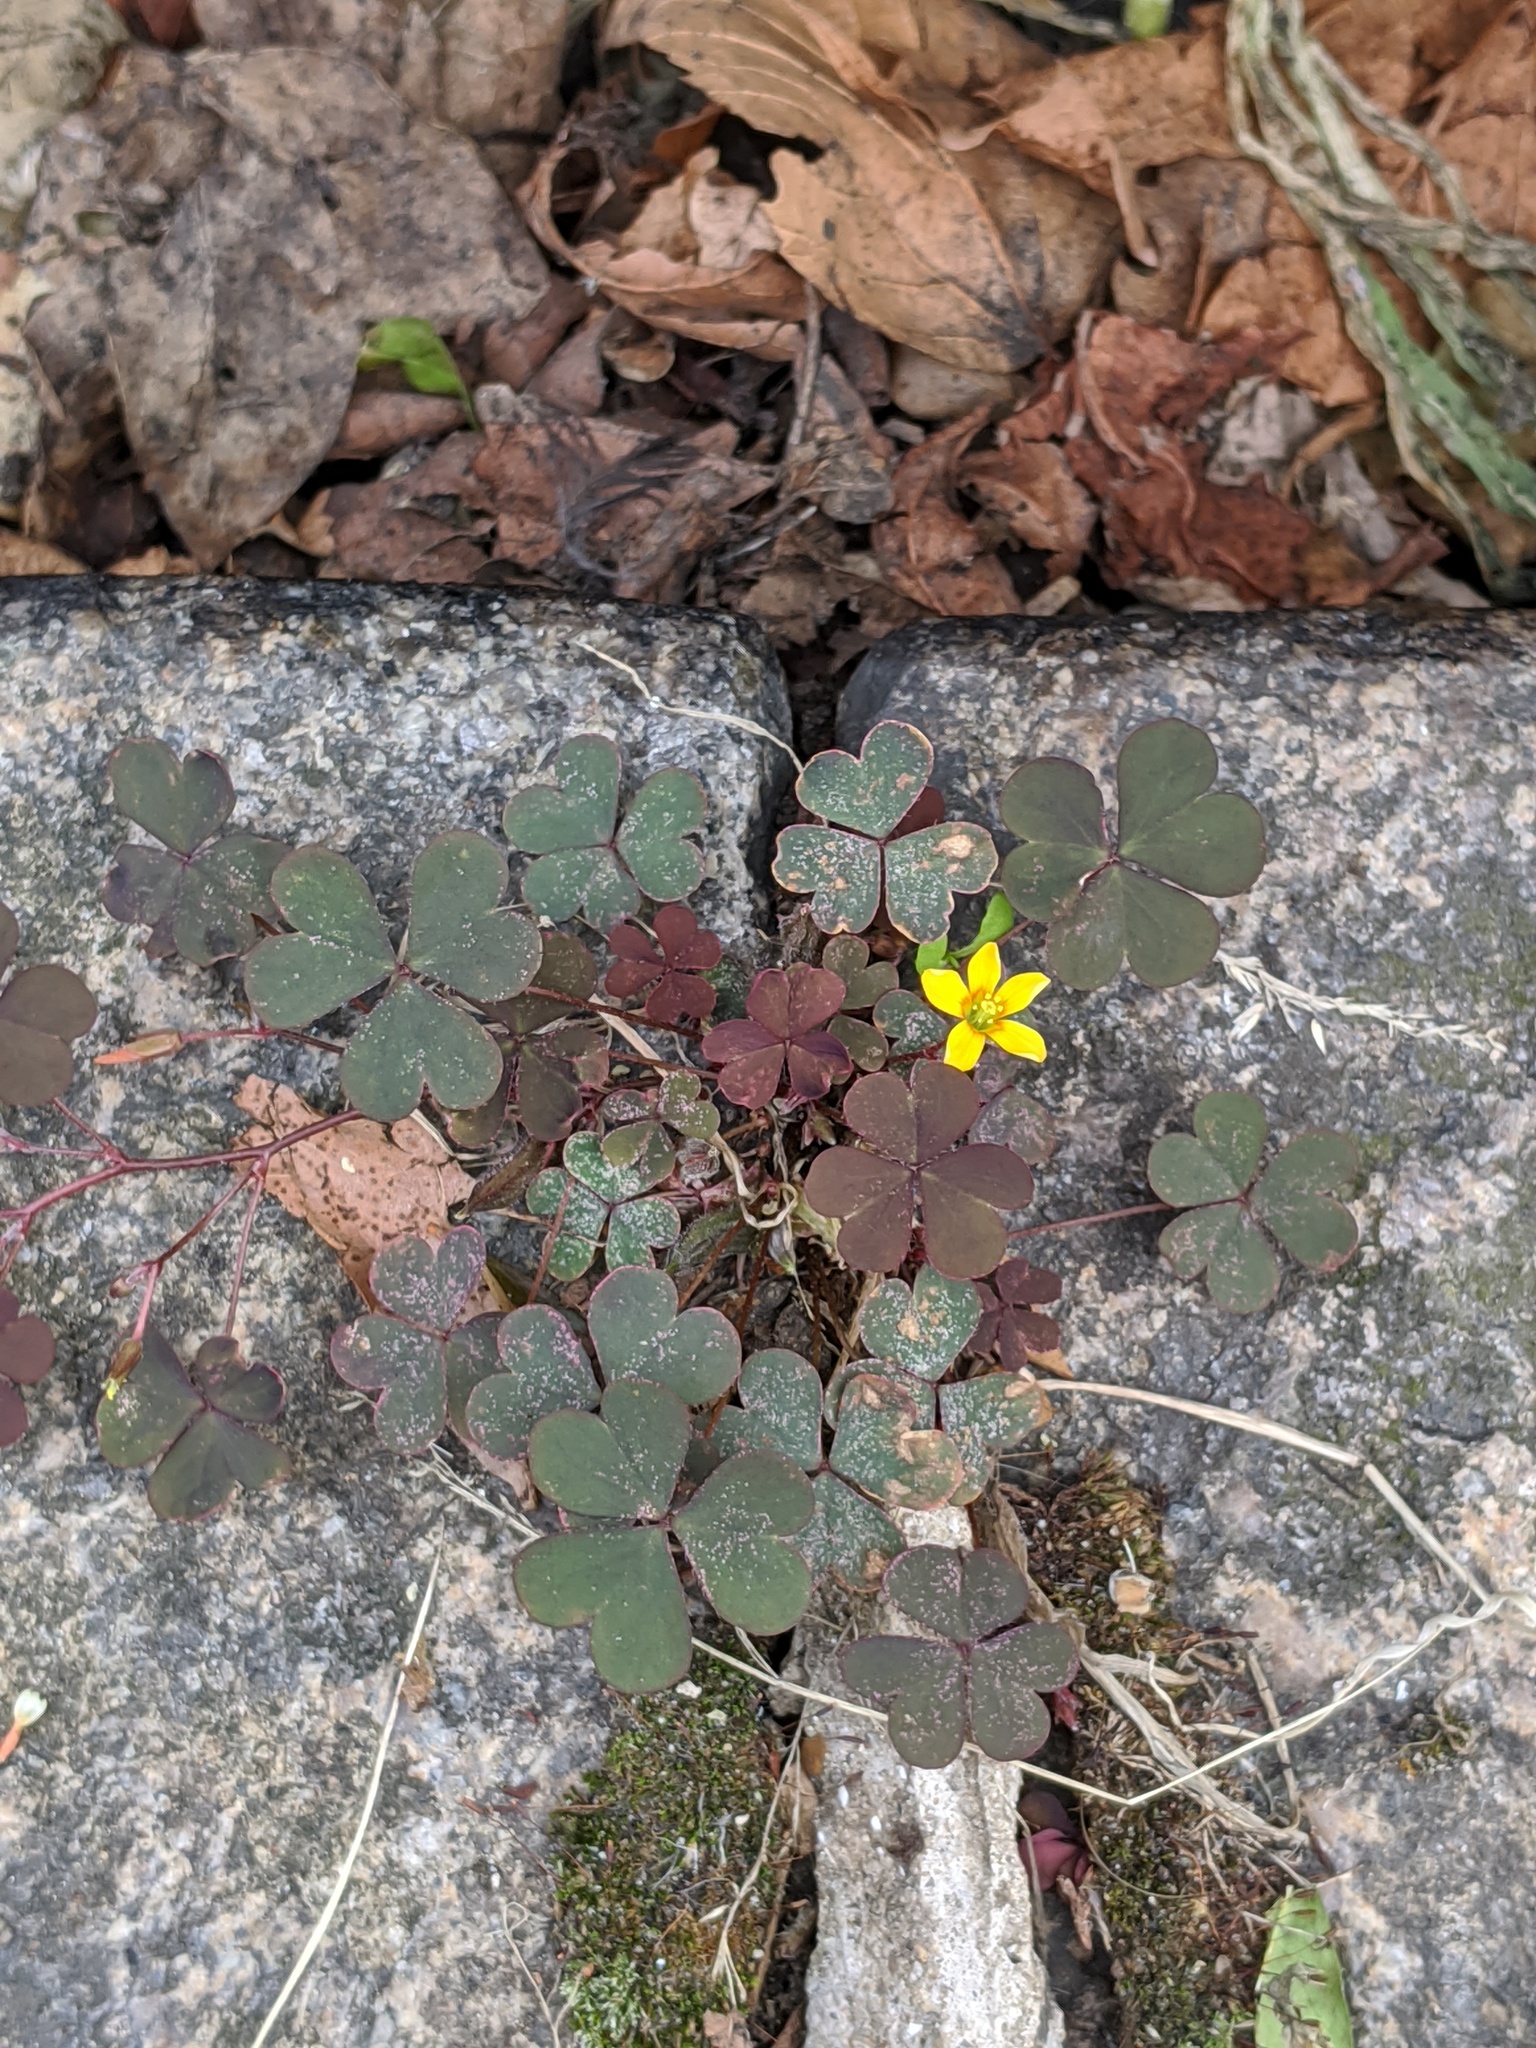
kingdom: Plantae
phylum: Tracheophyta
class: Magnoliopsida
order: Oxalidales
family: Oxalidaceae
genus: Oxalis
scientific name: Oxalis corniculata
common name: Procumbent yellow-sorrel
